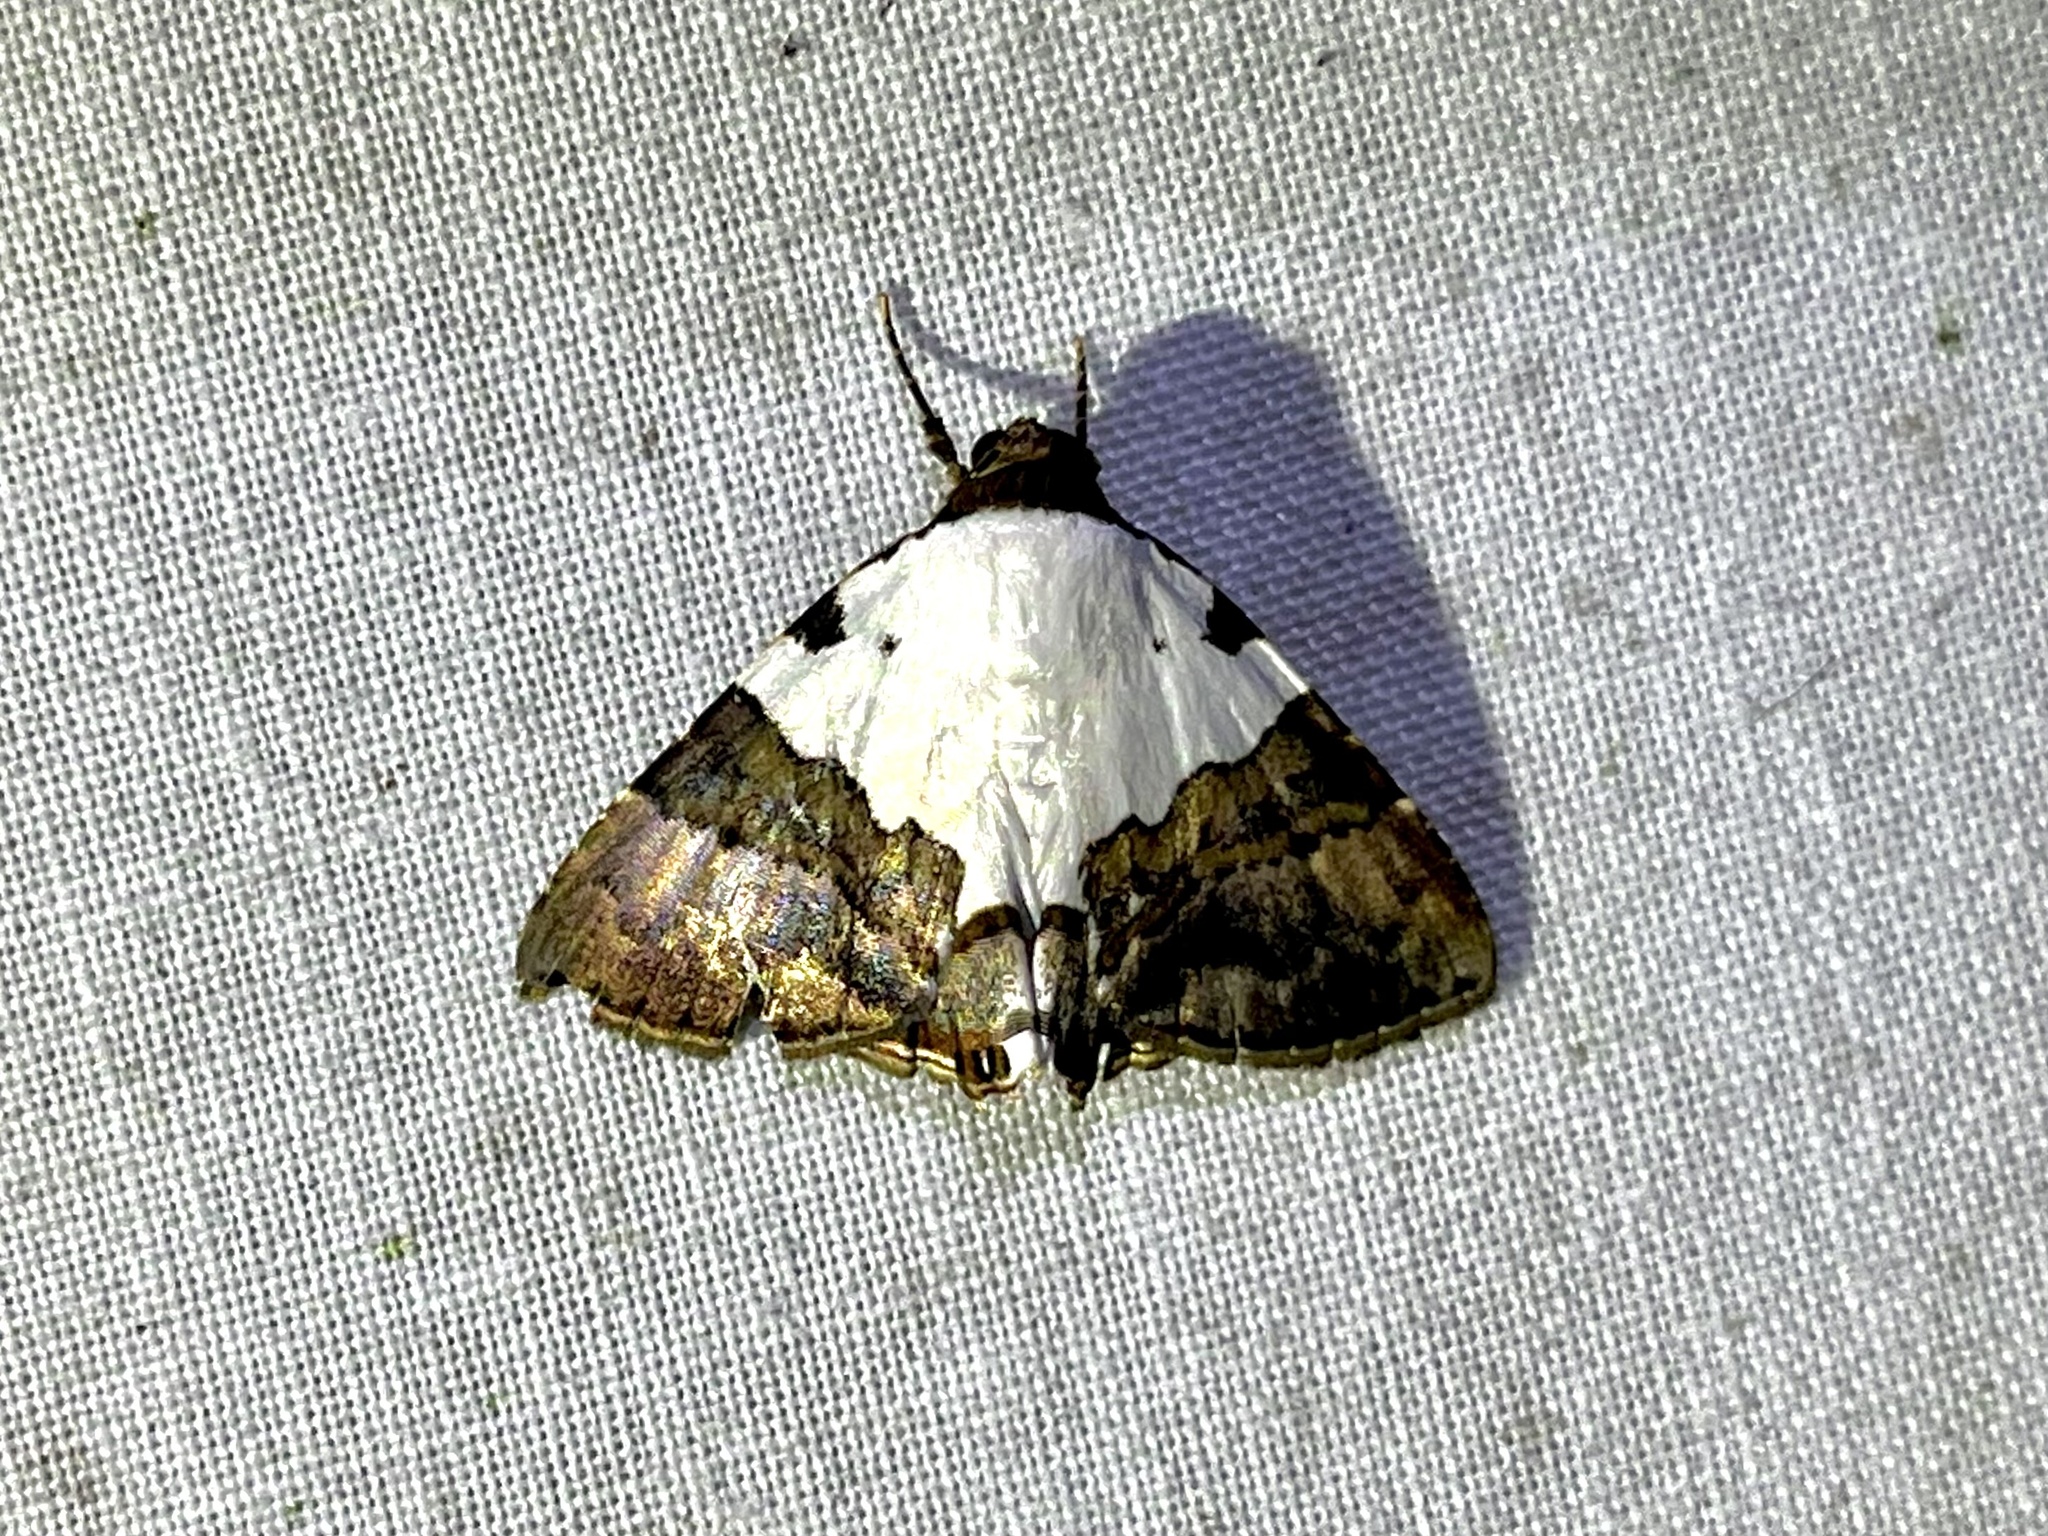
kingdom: Animalia
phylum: Arthropoda
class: Insecta
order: Lepidoptera
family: Erebidae
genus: Eulepidotis
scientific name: Eulepidotis vincentiata
